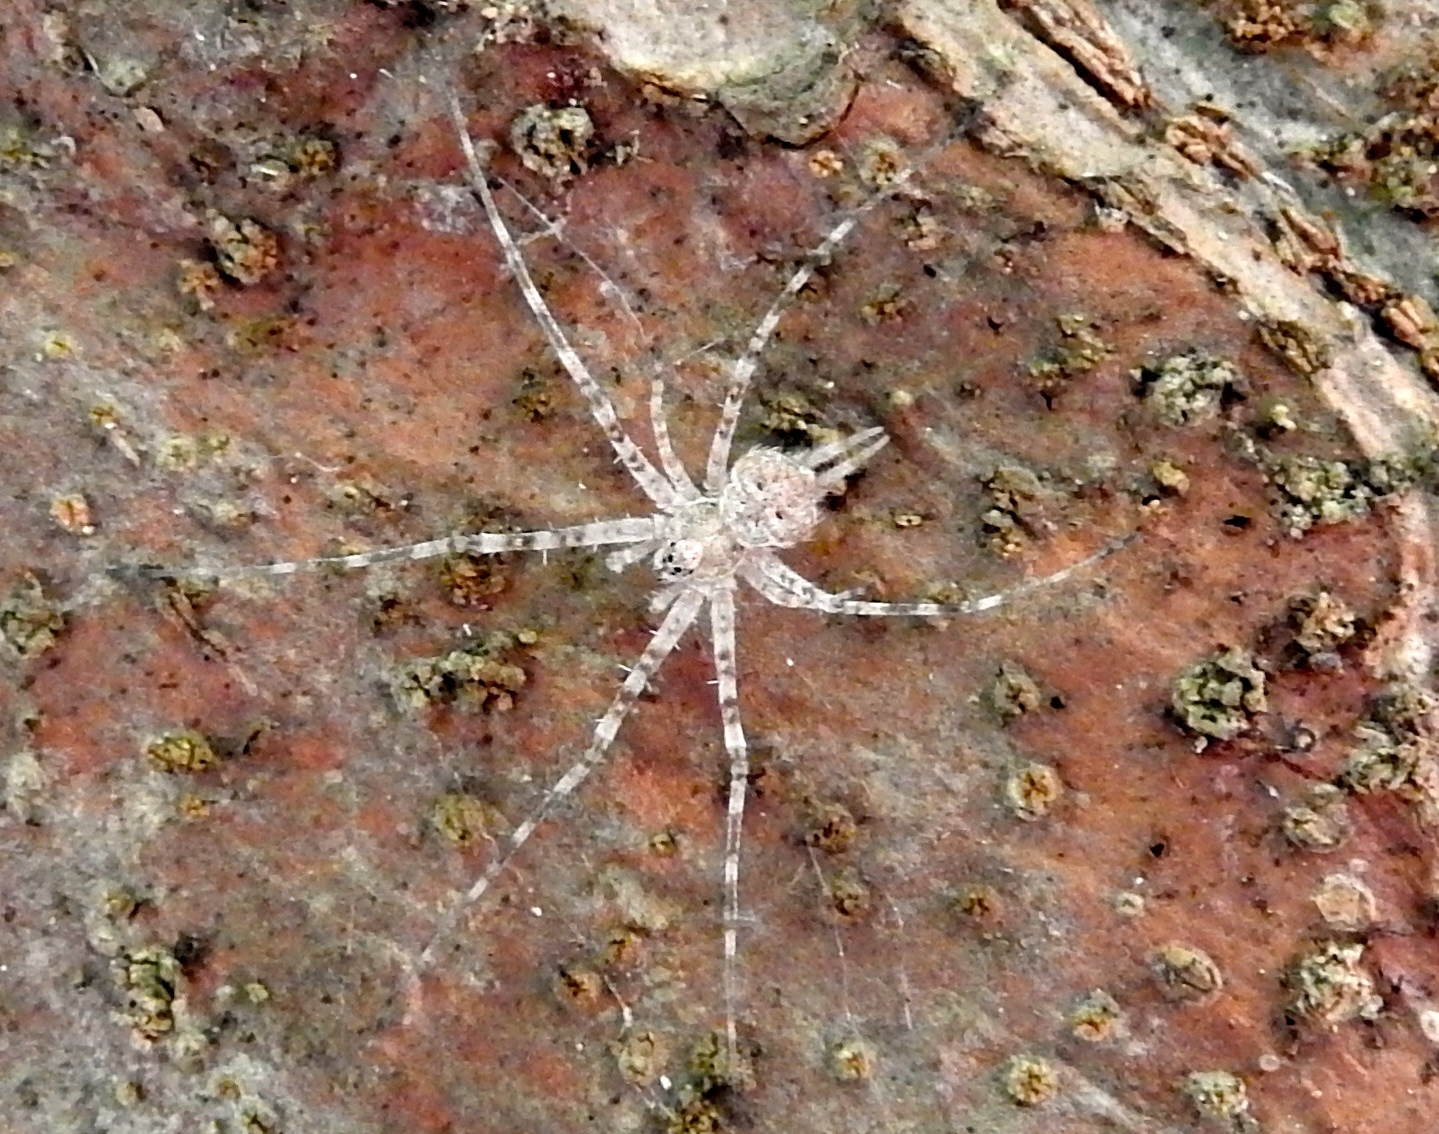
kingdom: Animalia
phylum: Arthropoda
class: Arachnida
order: Araneae
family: Hersiliidae
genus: Neotama
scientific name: Neotama mexicana
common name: Tree trunk spiders
